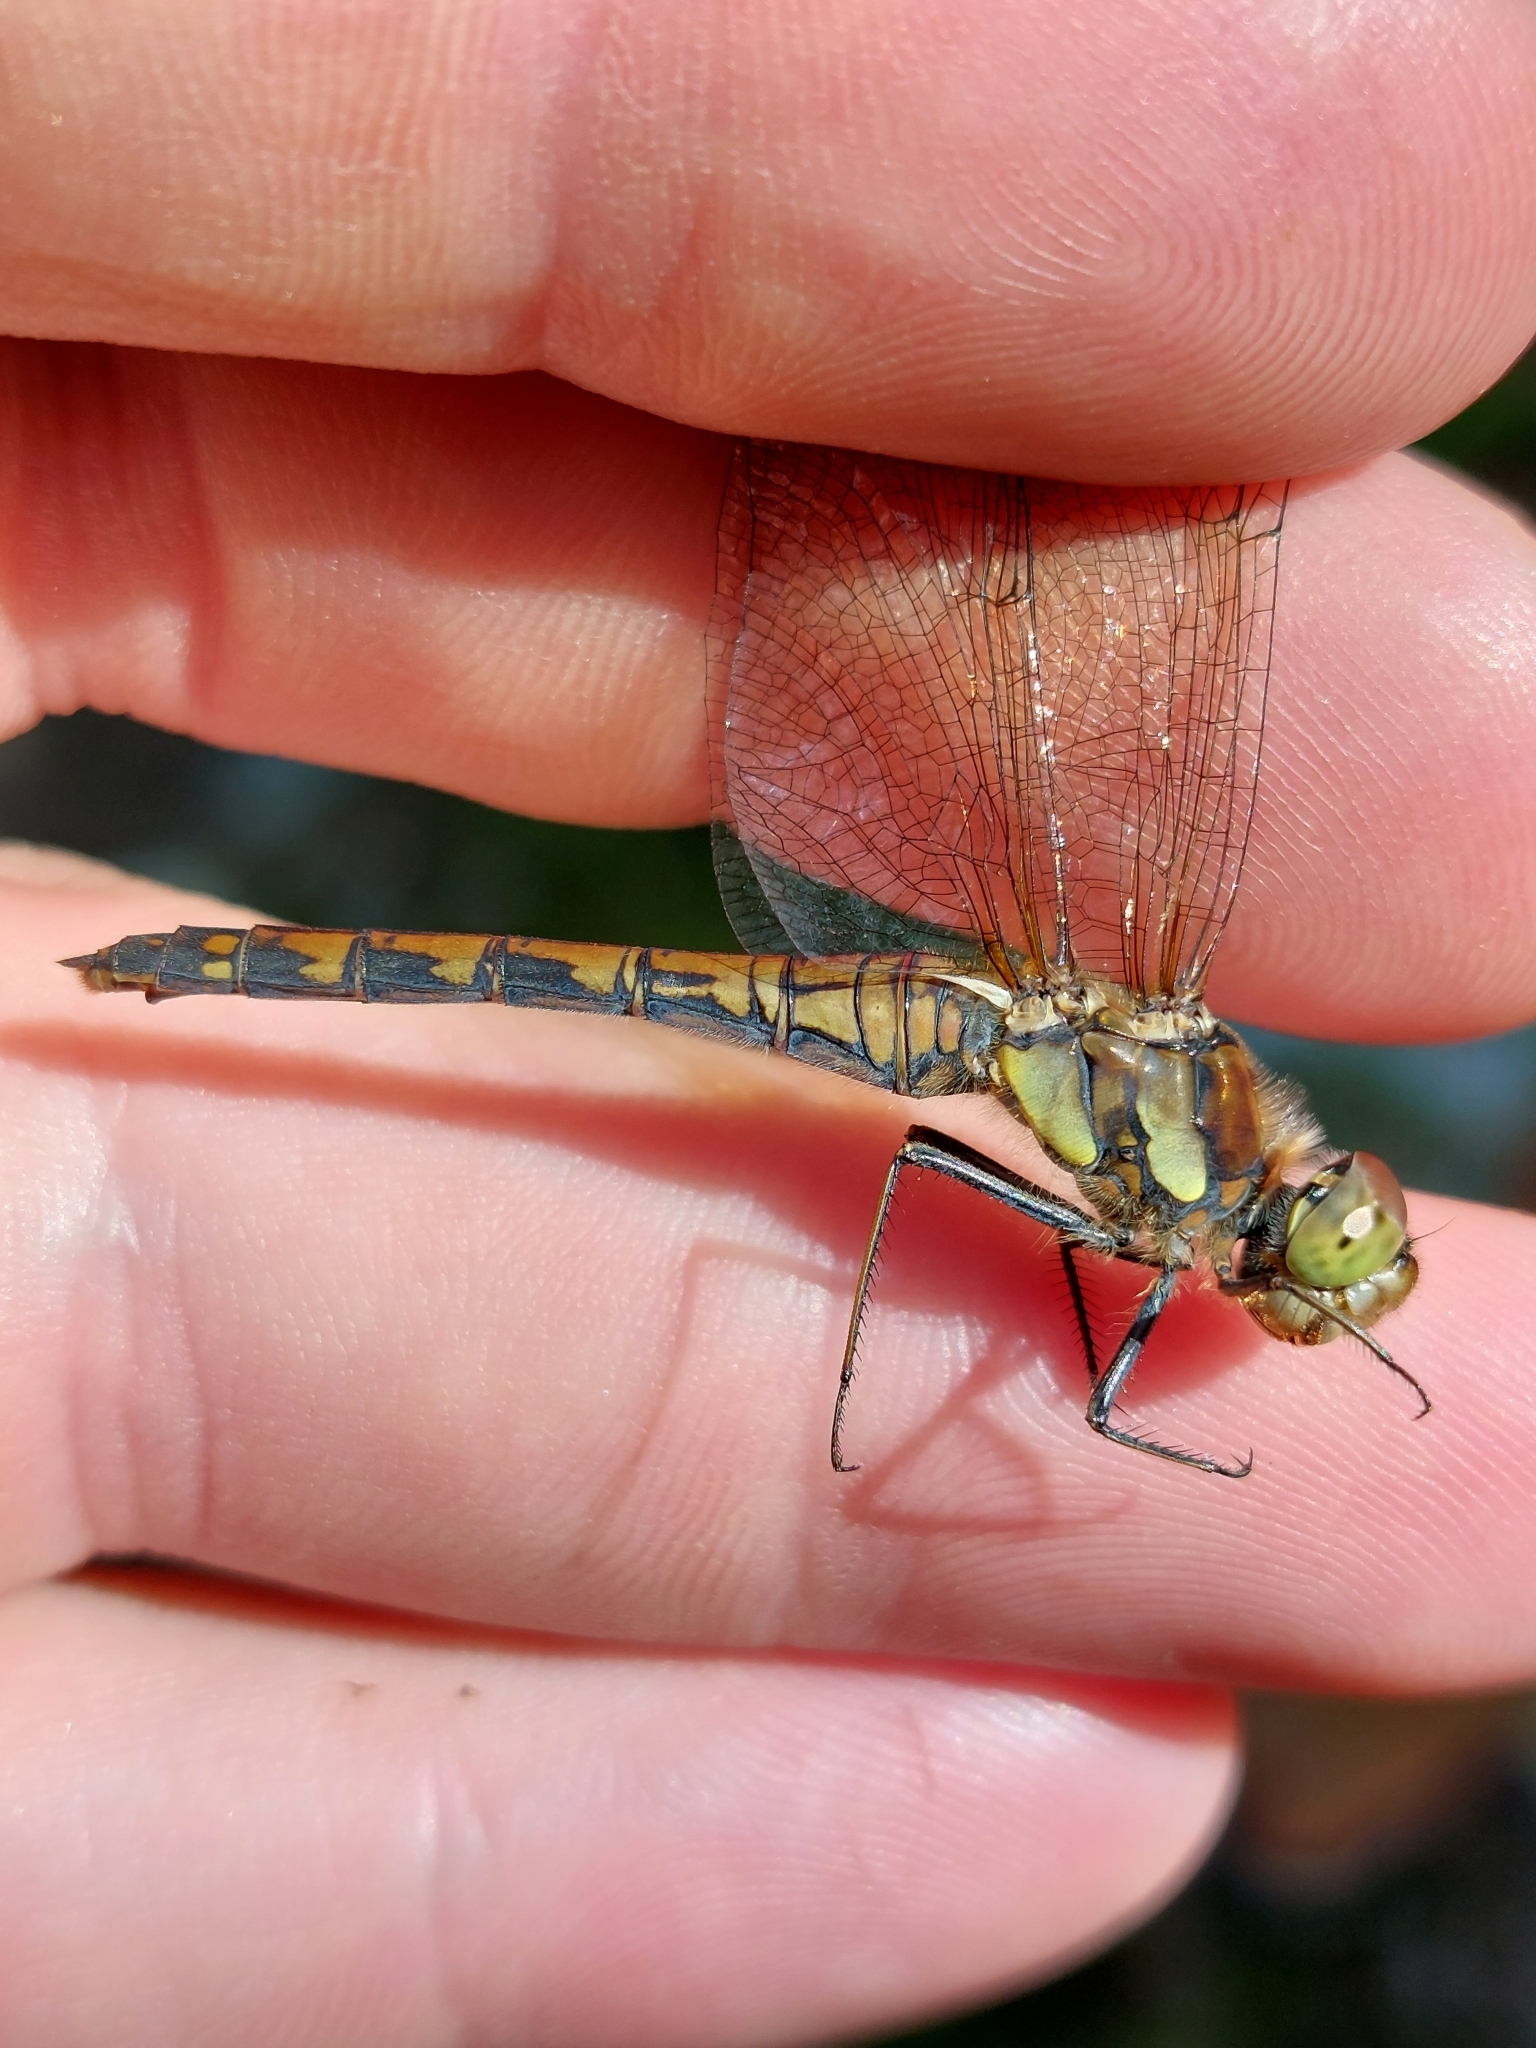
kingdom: Animalia
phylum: Arthropoda
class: Insecta
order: Odonata
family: Libellulidae
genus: Sympetrum
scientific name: Sympetrum striolatum
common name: Common darter
